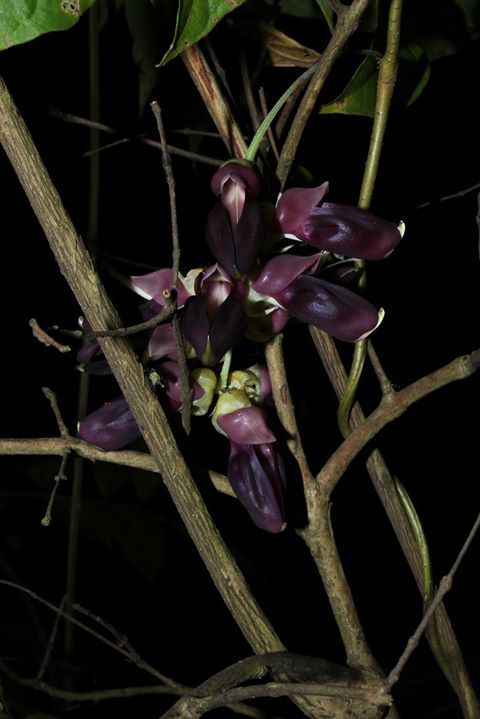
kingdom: Plantae
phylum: Tracheophyta
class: Magnoliopsida
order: Fabales
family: Fabaceae
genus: Mucuna
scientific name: Mucuna pruriens
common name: Cow-itch
